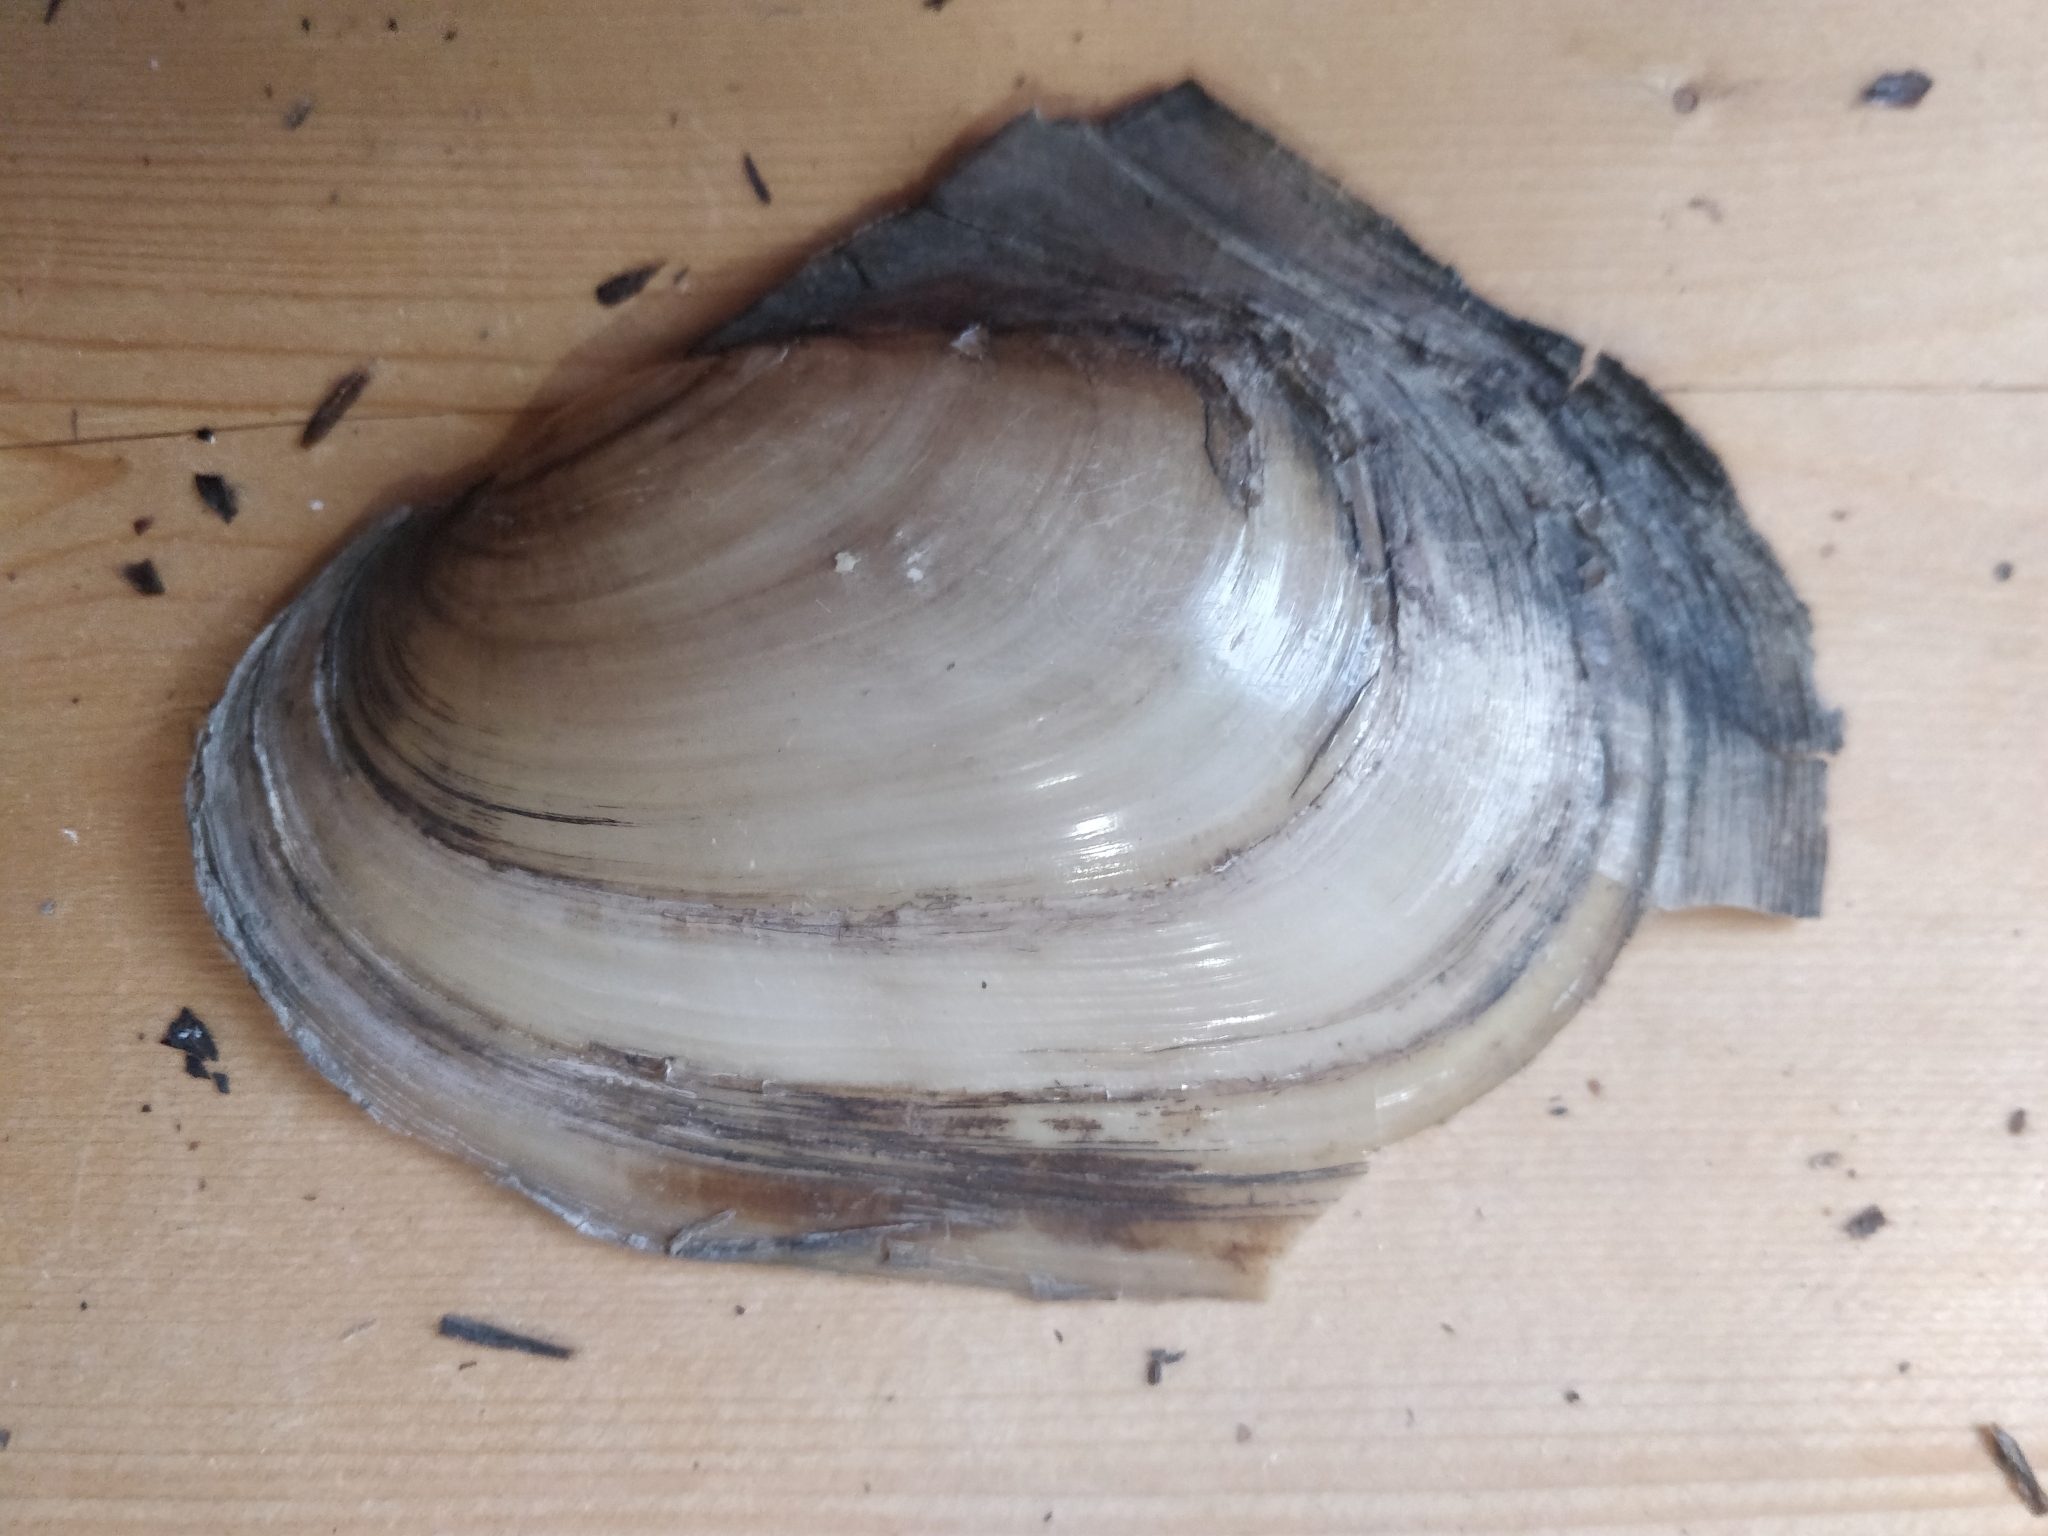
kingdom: Animalia
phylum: Mollusca
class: Bivalvia
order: Unionida
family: Unionidae
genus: Potamilus
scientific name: Potamilus fragilis
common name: Fragile papershell
